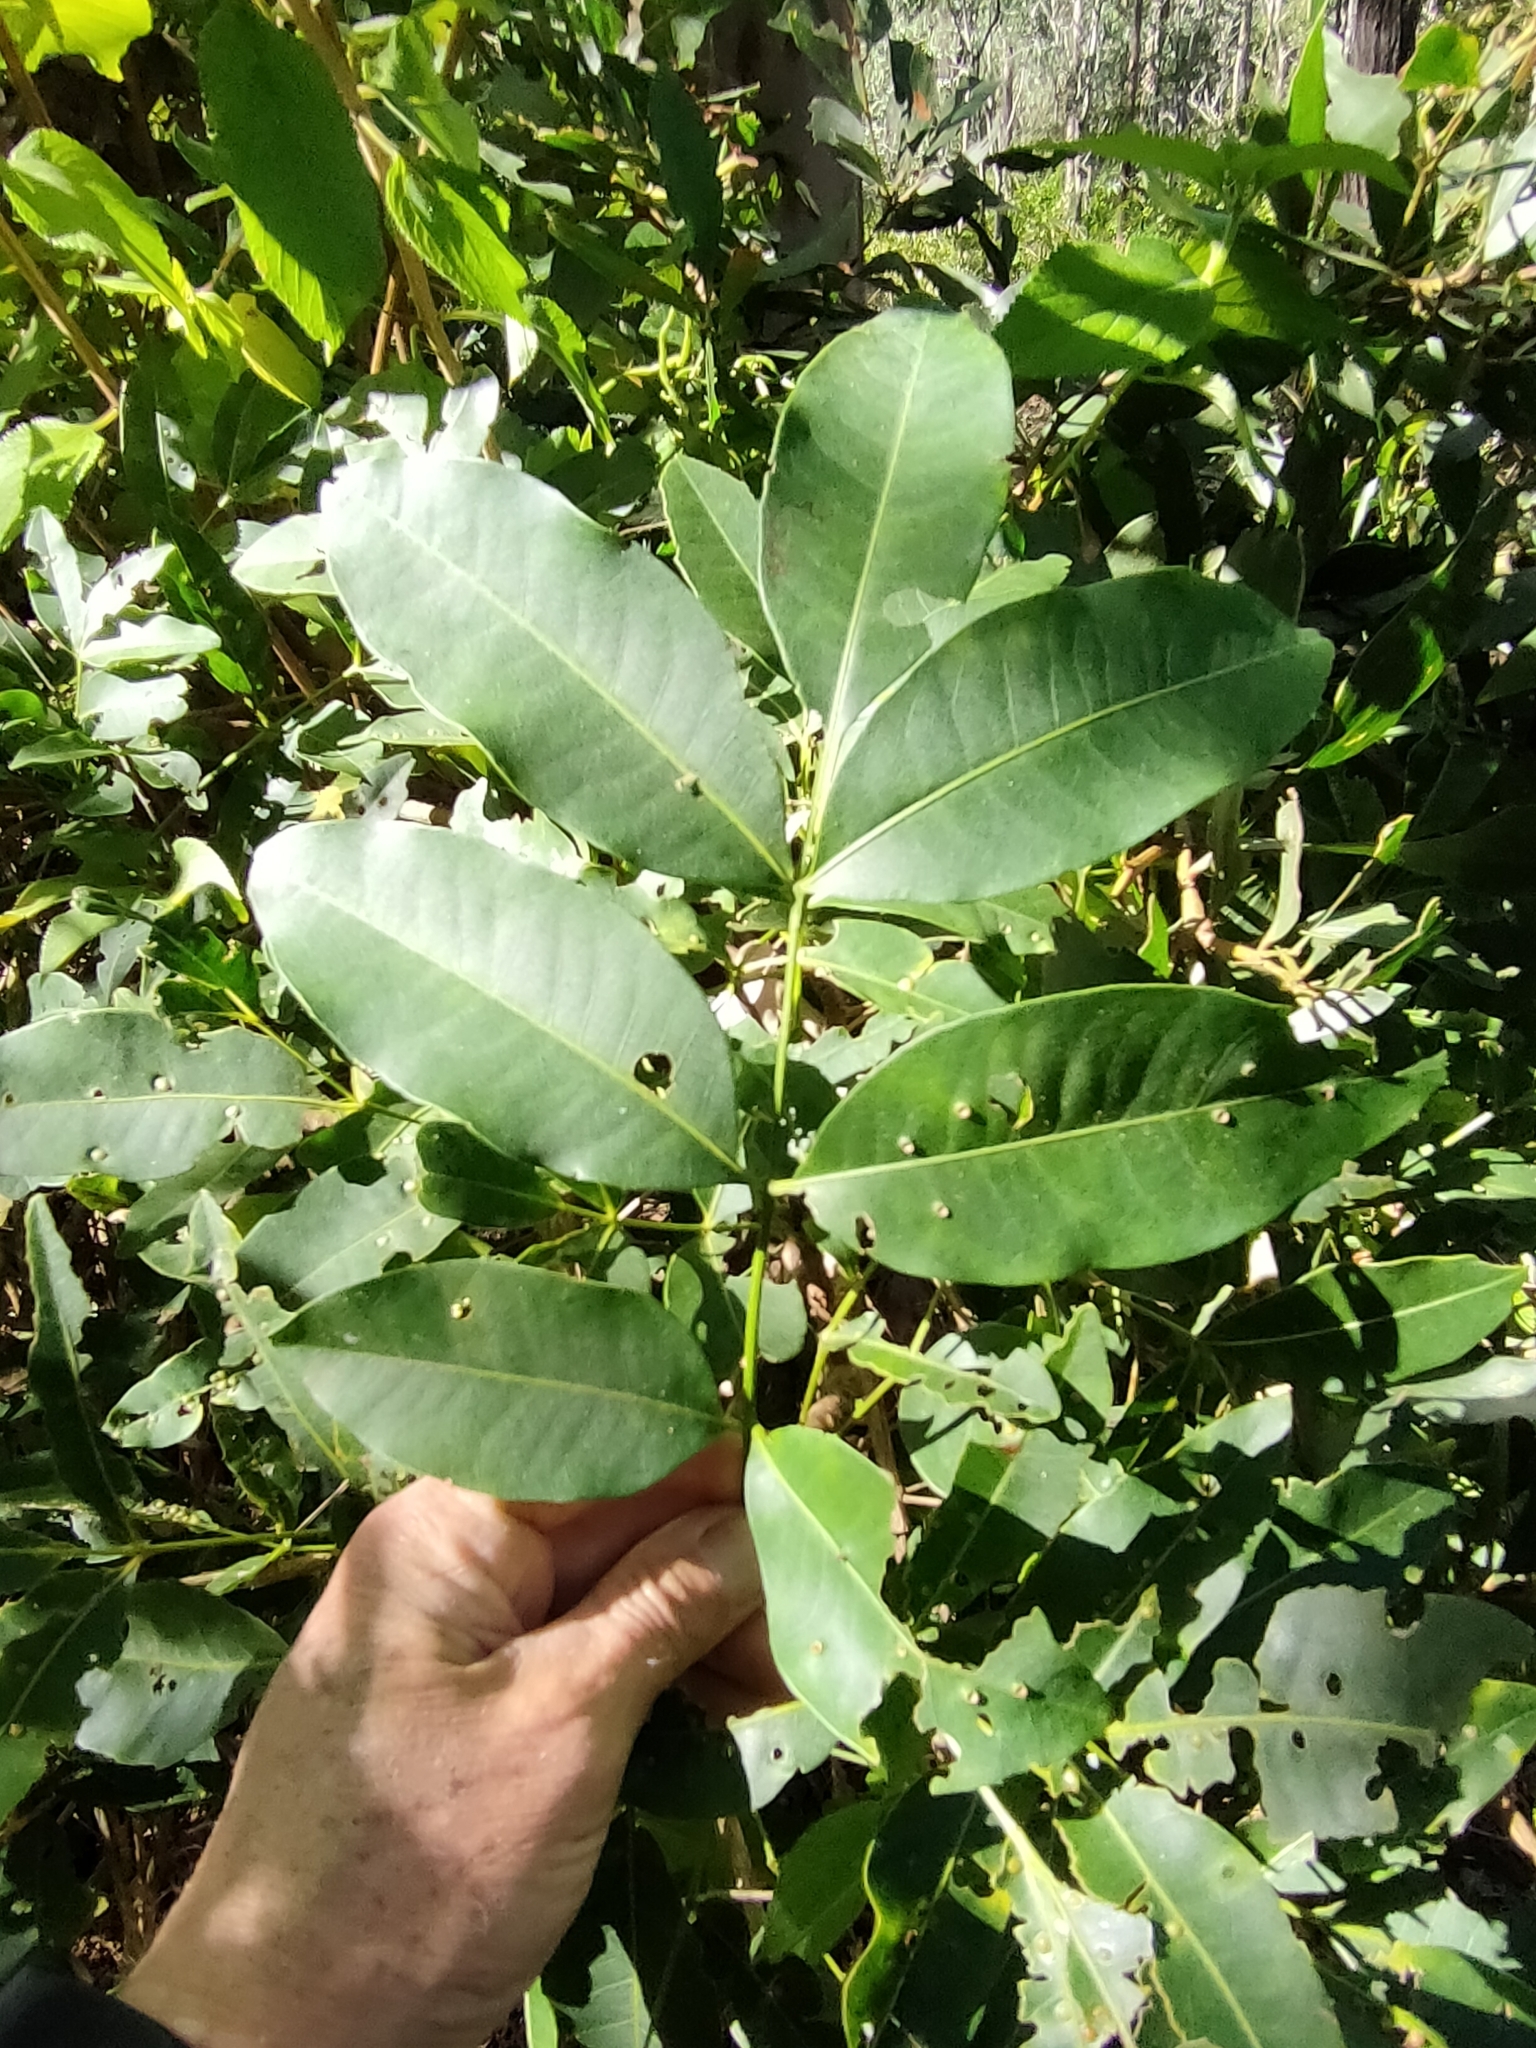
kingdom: Plantae
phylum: Tracheophyta
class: Magnoliopsida
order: Sapindales
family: Rutaceae
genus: Flindersia
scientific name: Flindersia australis
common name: Australian-teak
